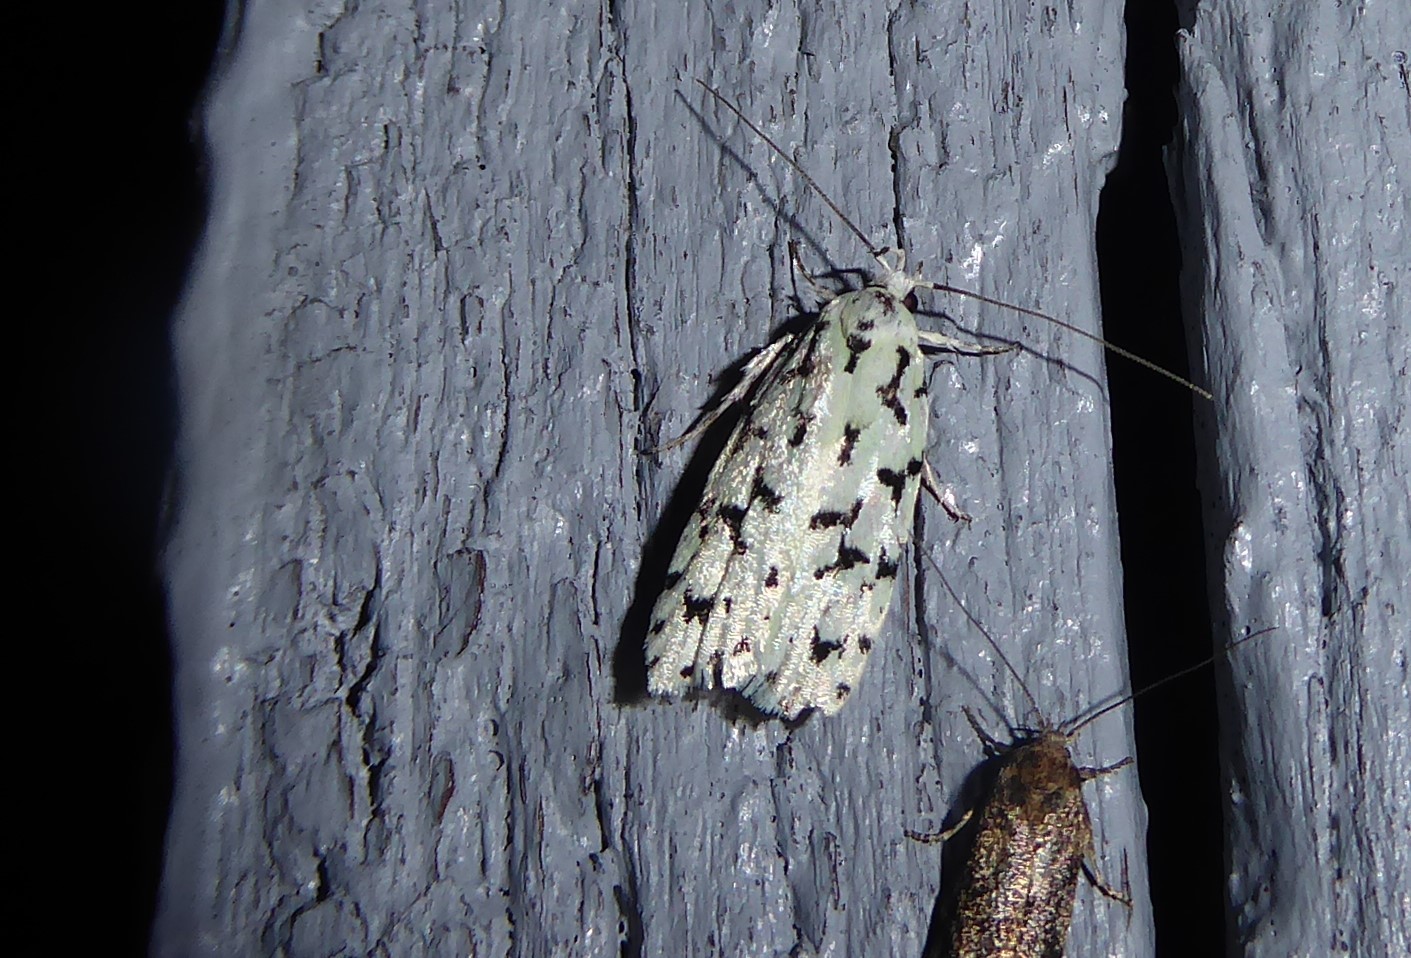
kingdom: Animalia
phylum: Arthropoda
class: Insecta
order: Lepidoptera
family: Oecophoridae
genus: Izatha
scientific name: Izatha huttoni
